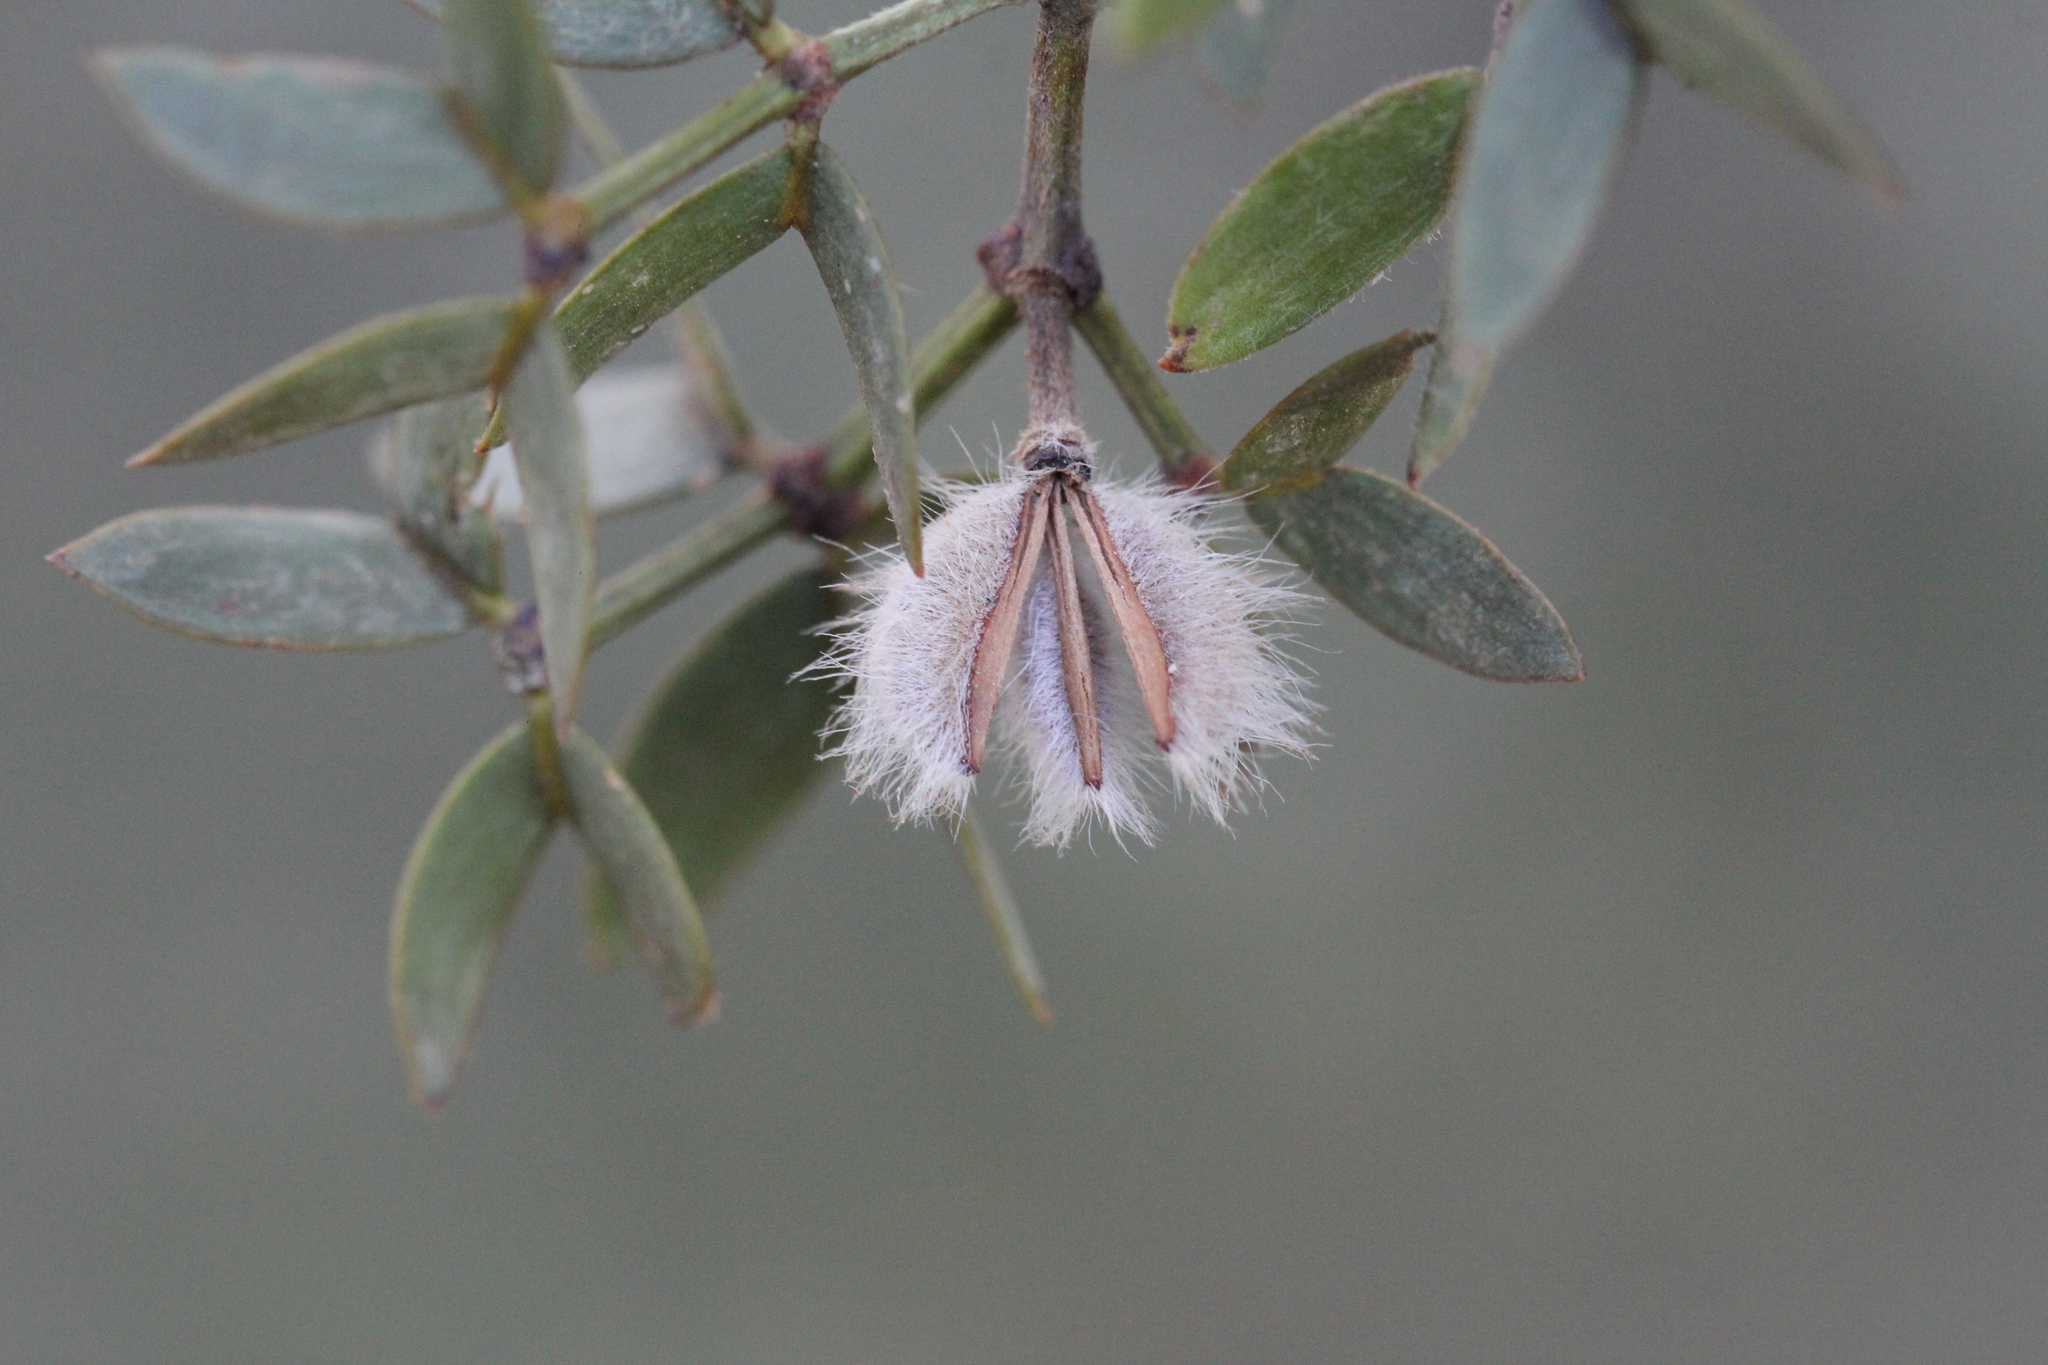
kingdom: Plantae
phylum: Tracheophyta
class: Magnoliopsida
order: Zygophyllales
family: Zygophyllaceae
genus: Larrea
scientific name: Larrea divaricata
